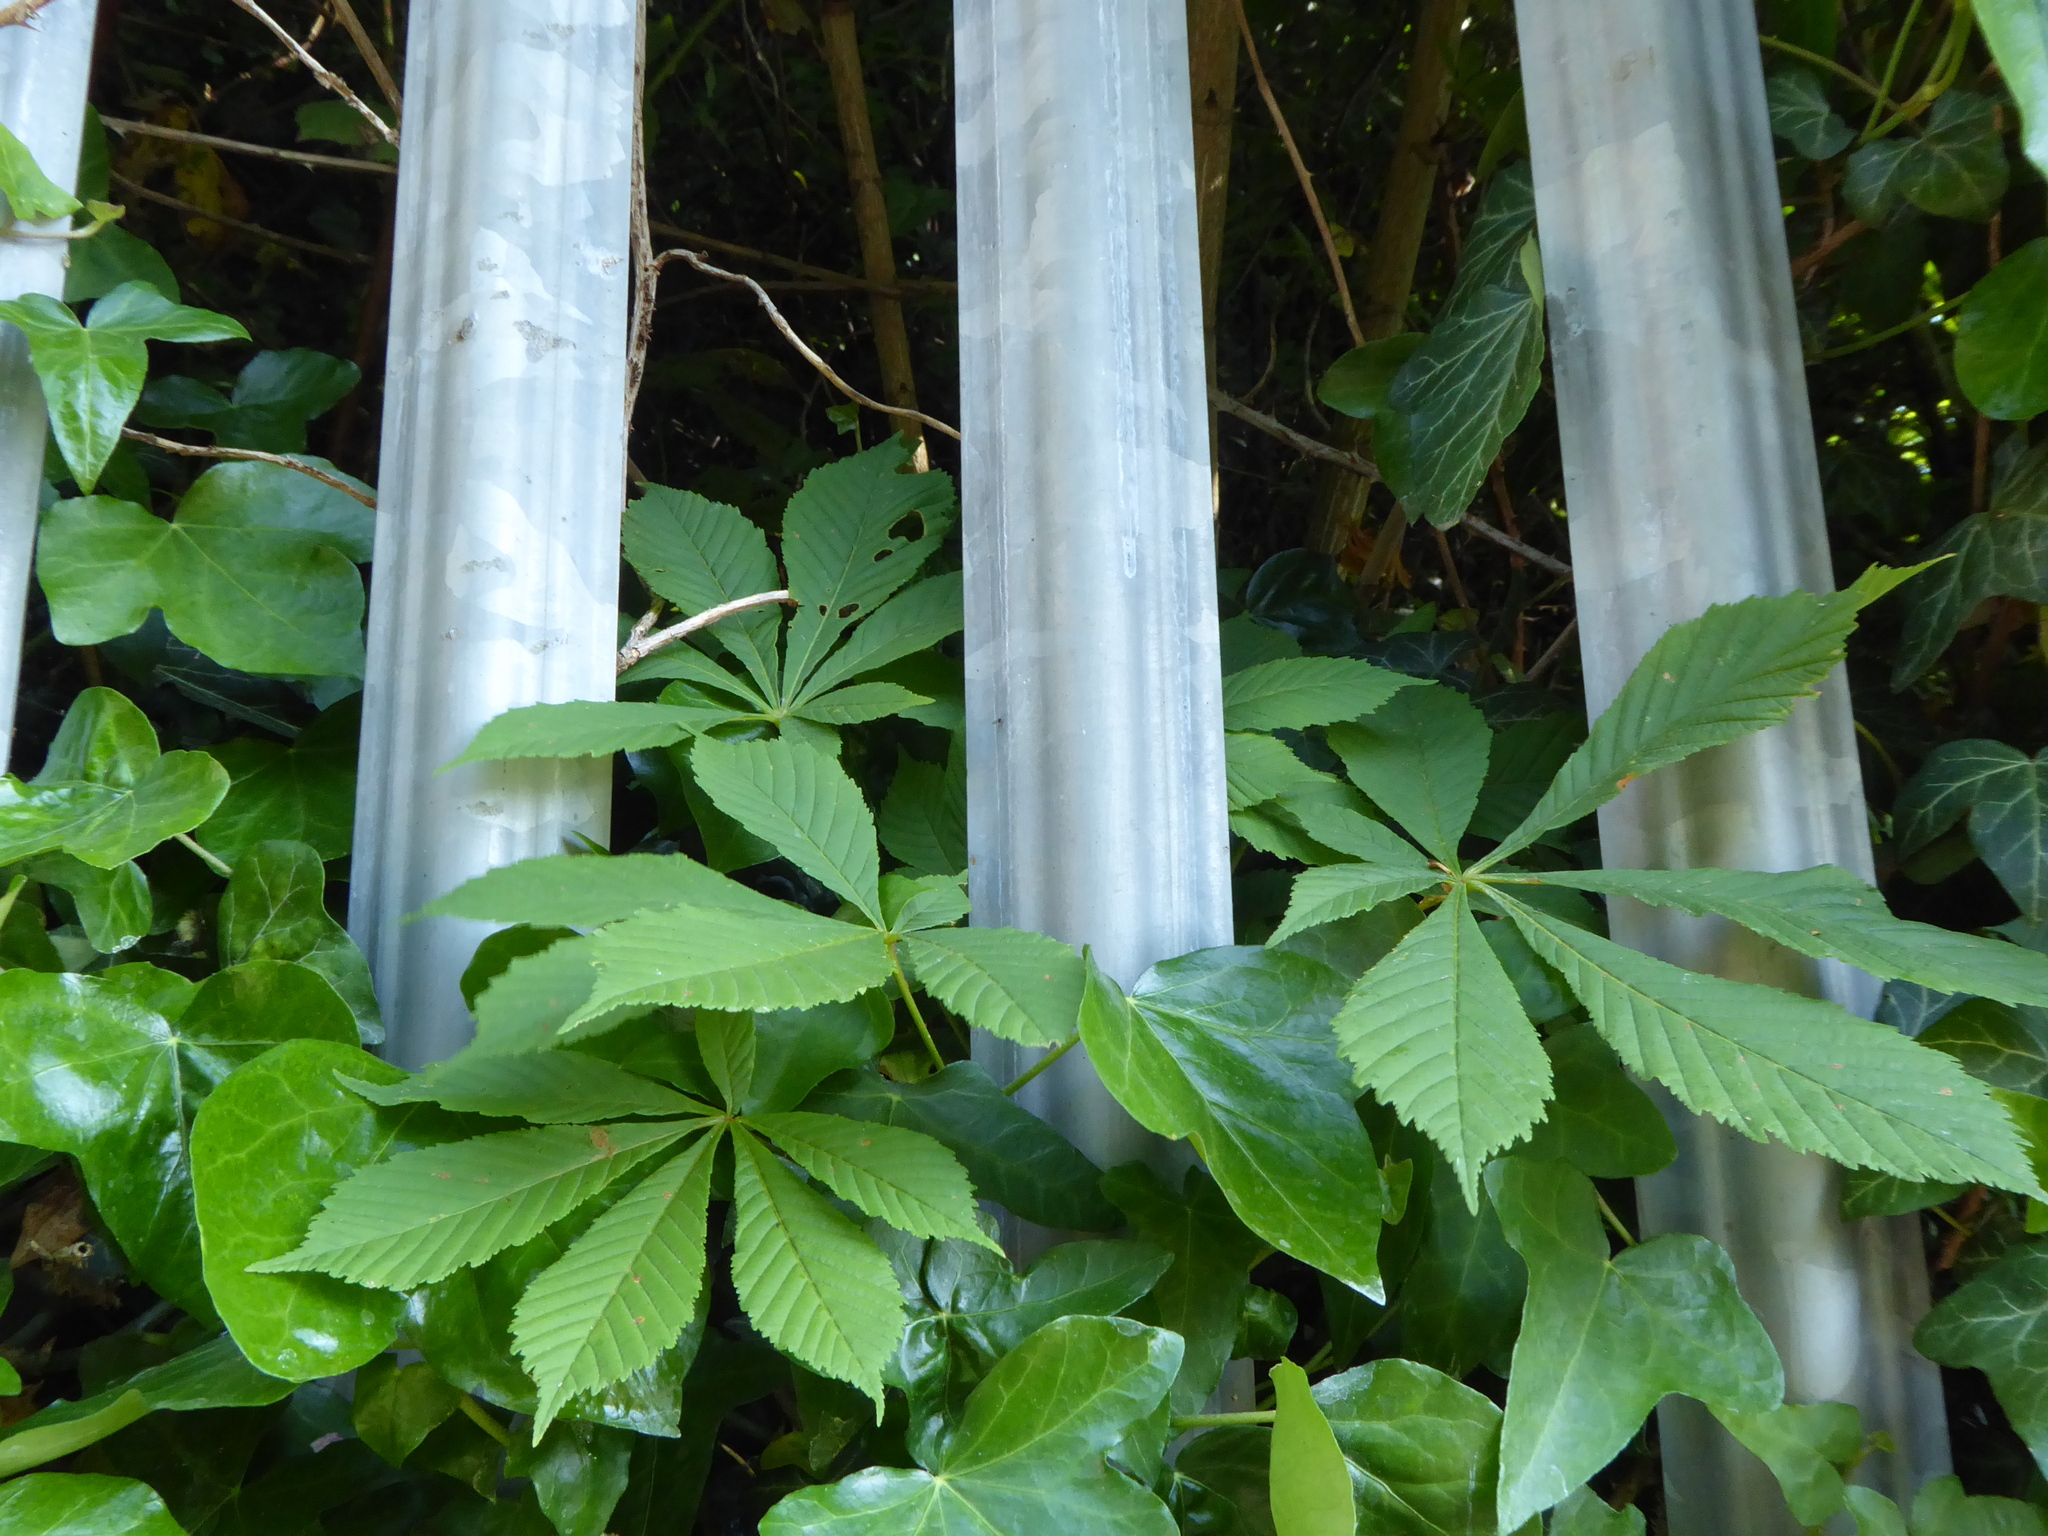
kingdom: Plantae
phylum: Tracheophyta
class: Magnoliopsida
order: Sapindales
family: Sapindaceae
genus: Aesculus
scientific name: Aesculus hippocastanum
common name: Horse-chestnut
